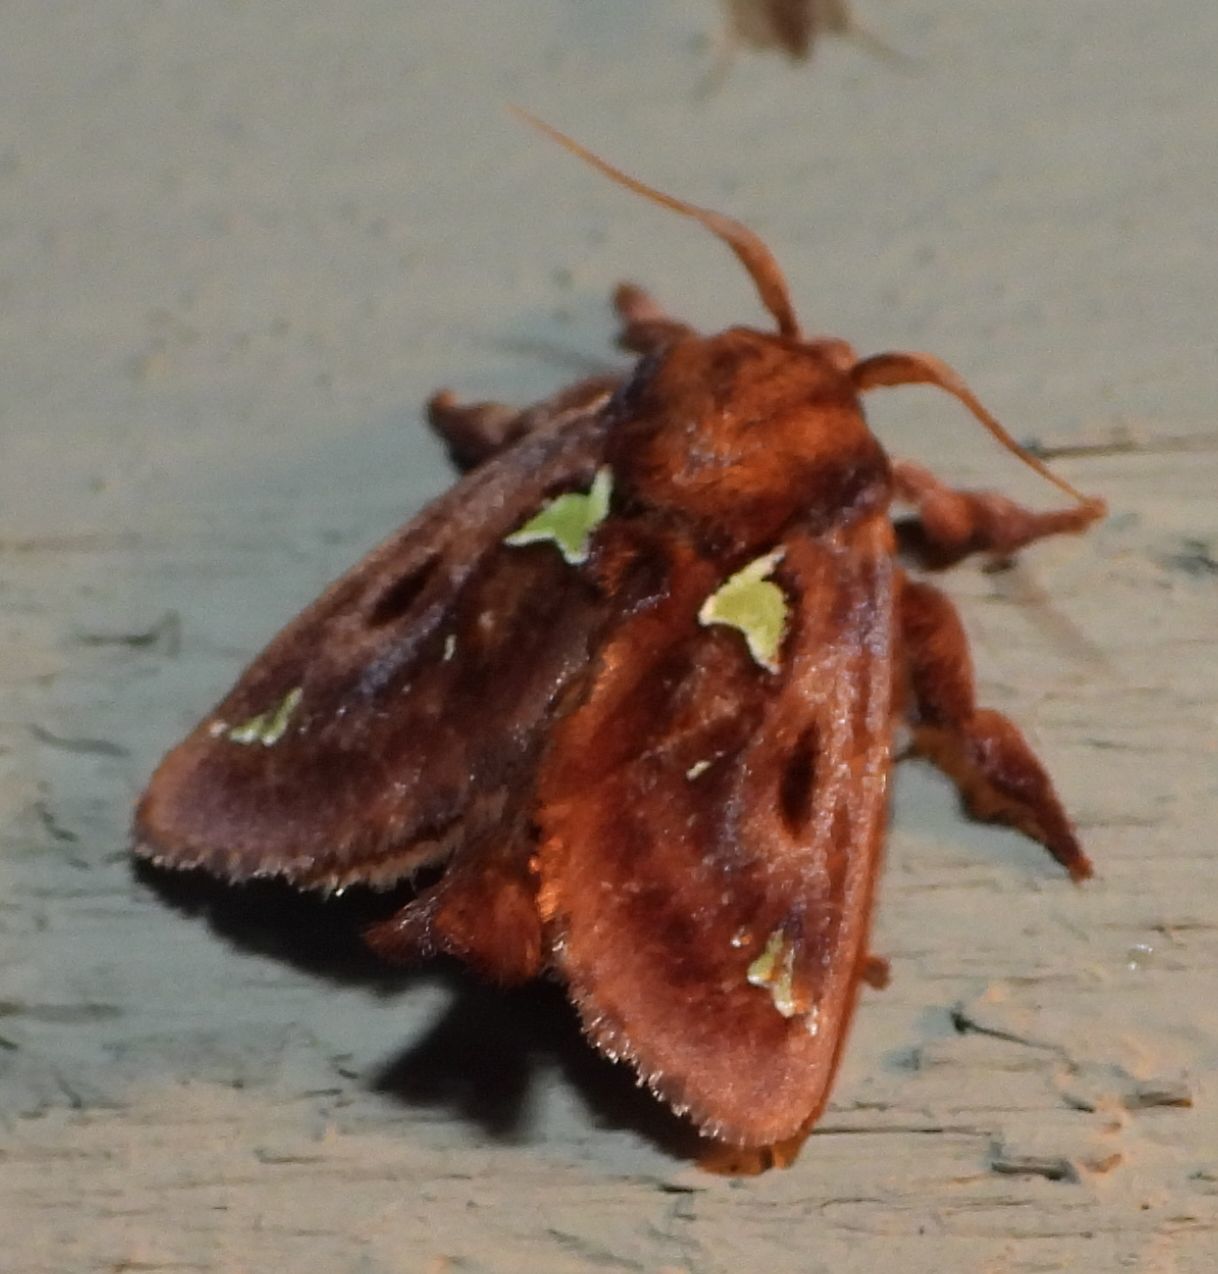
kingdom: Animalia
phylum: Arthropoda
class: Insecta
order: Lepidoptera
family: Limacodidae
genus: Euclea
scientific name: Euclea delphinii
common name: Spiny oak-slug moth
